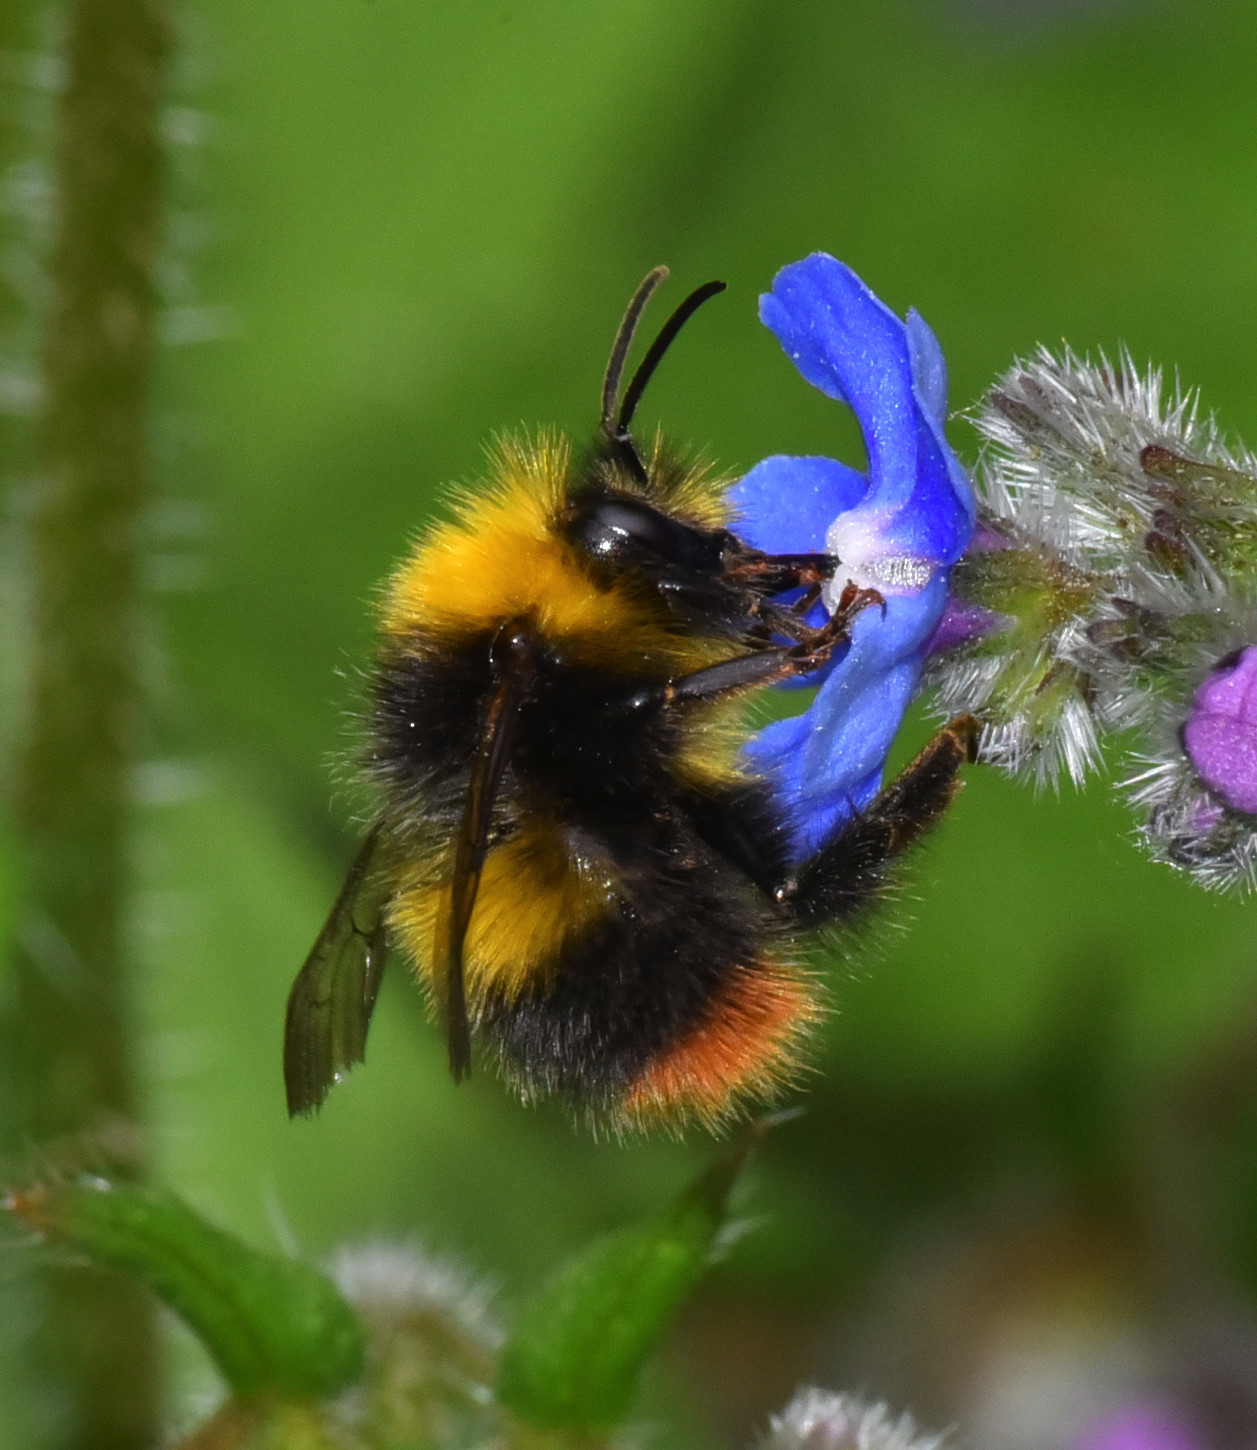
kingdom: Animalia
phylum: Arthropoda
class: Insecta
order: Hymenoptera
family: Apidae
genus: Bombus
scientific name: Bombus pratorum
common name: Early humble-bee
